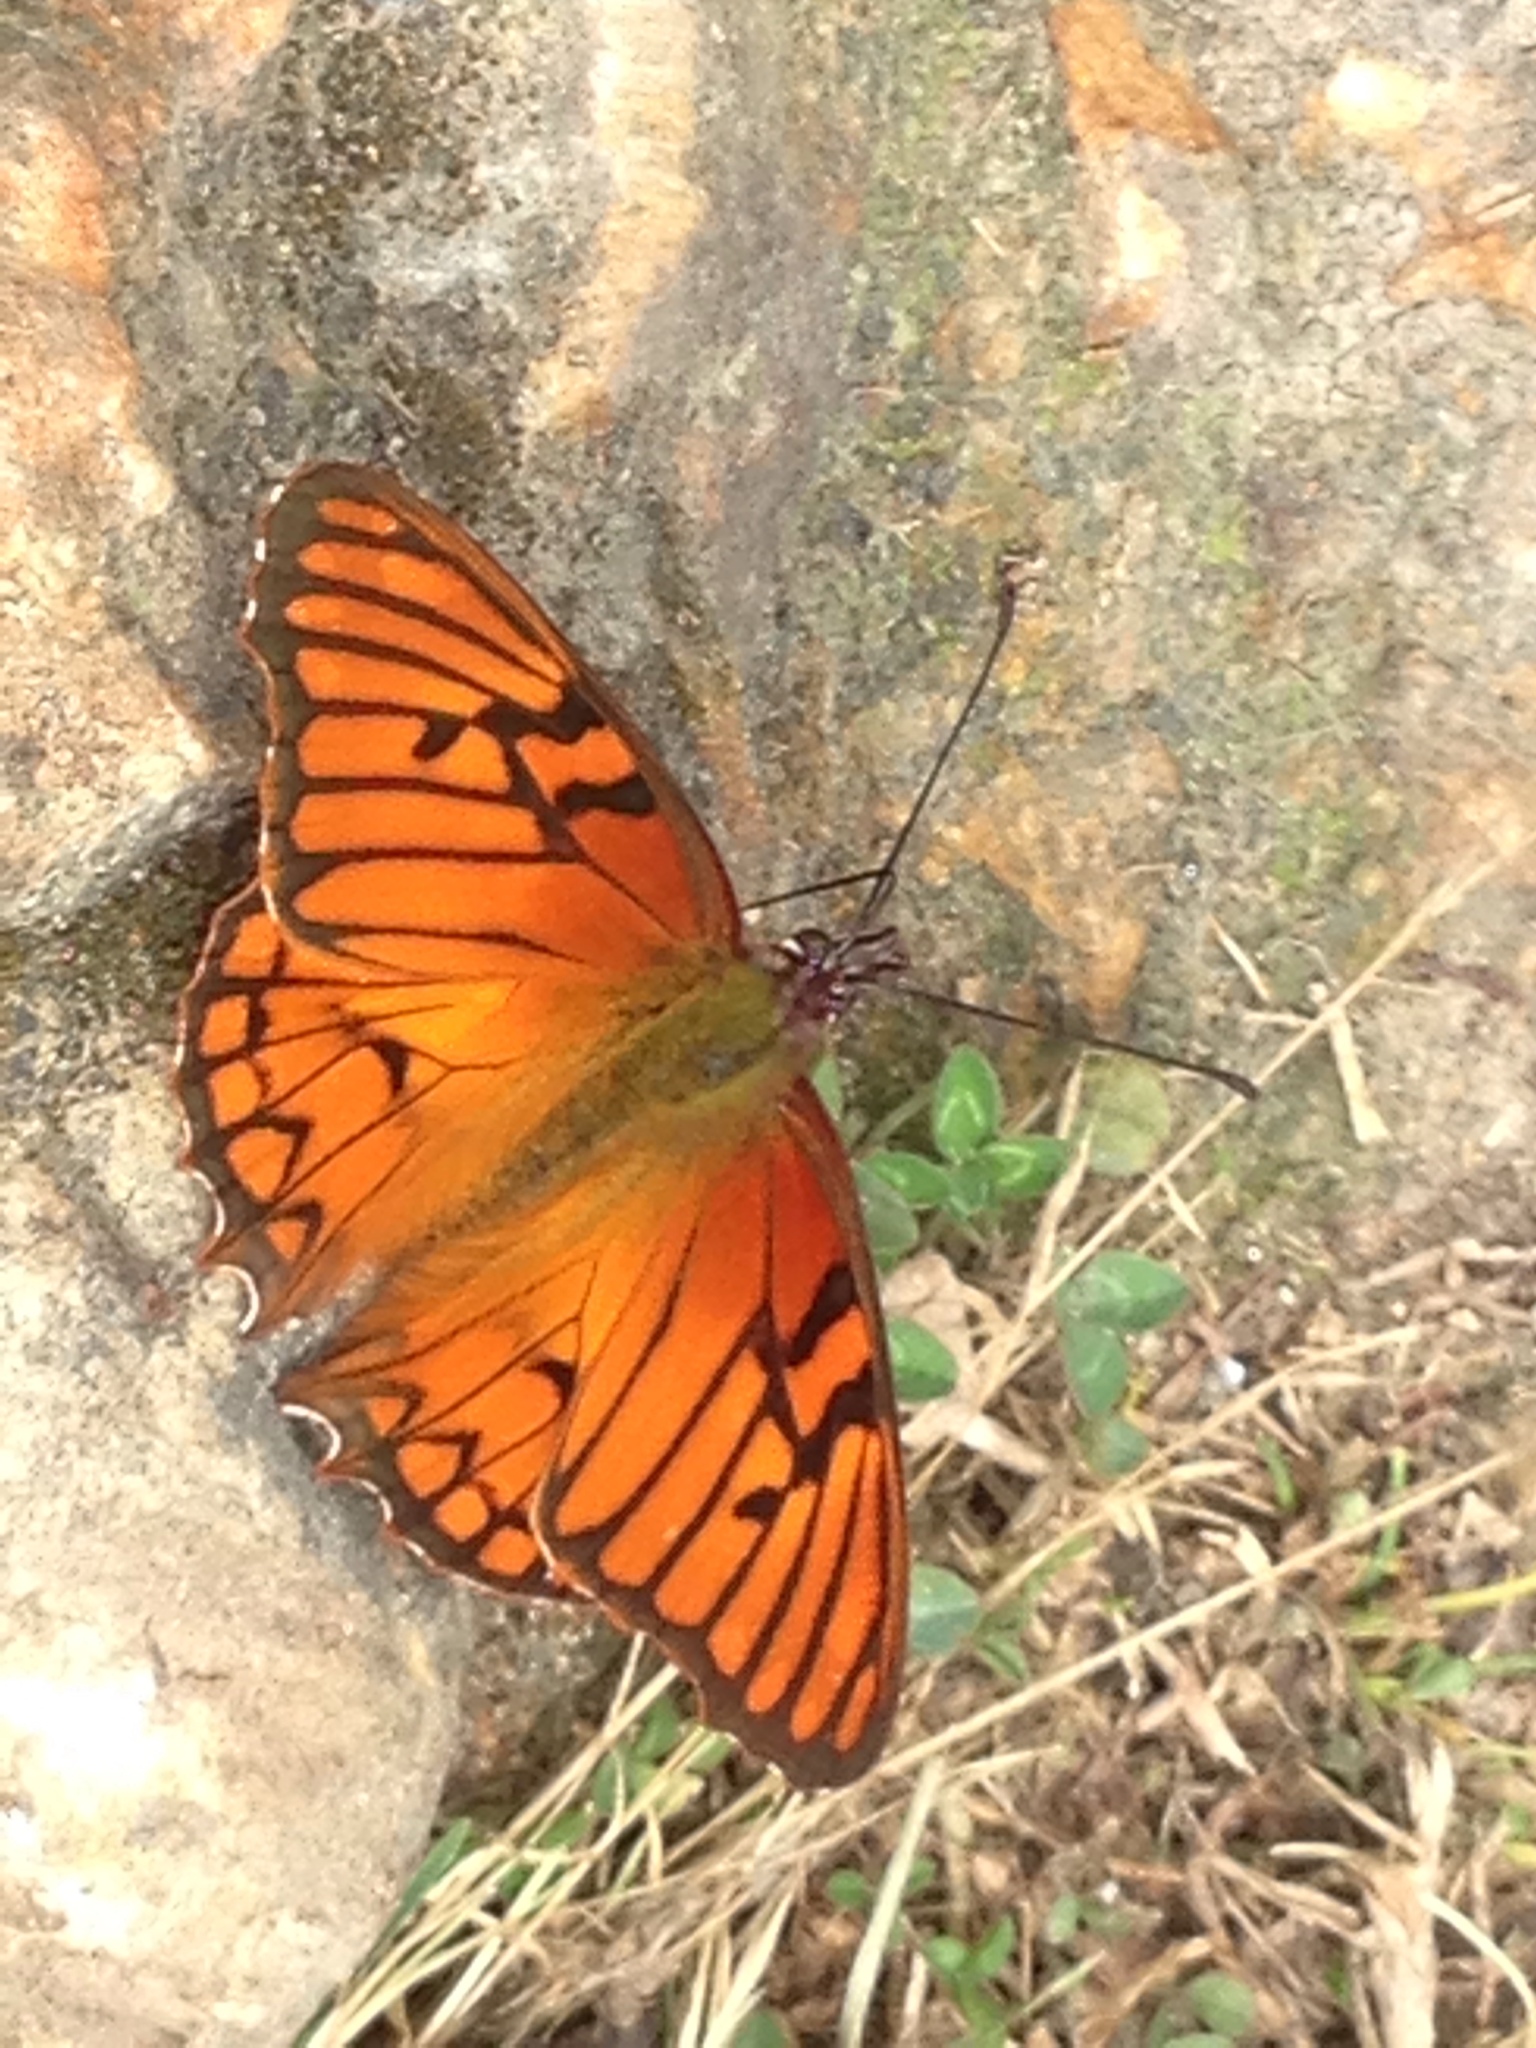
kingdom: Animalia
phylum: Arthropoda
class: Insecta
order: Lepidoptera
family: Nymphalidae
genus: Dione
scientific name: Dione glycera
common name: Andean silverspot
